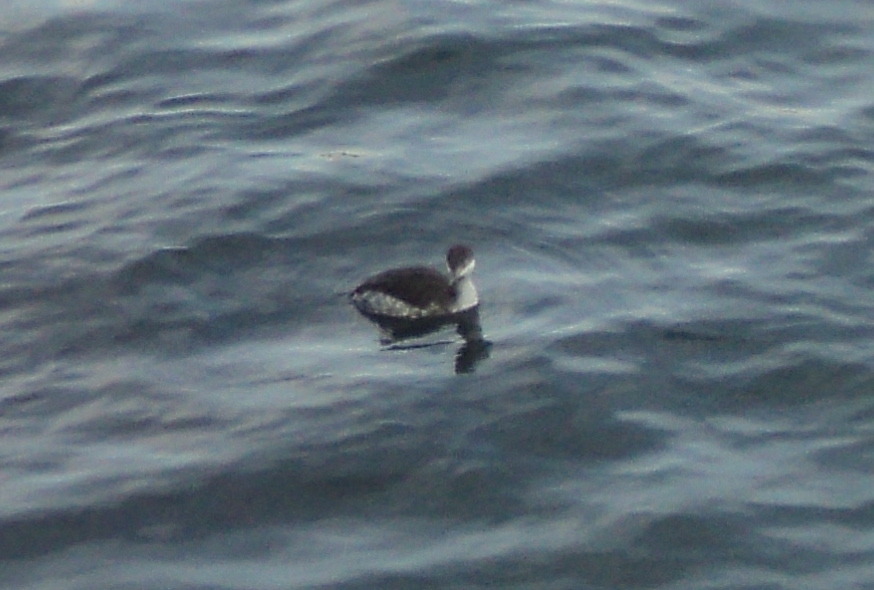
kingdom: Animalia
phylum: Chordata
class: Aves
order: Podicipediformes
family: Podicipedidae
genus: Podiceps
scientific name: Podiceps auritus
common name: Horned grebe
